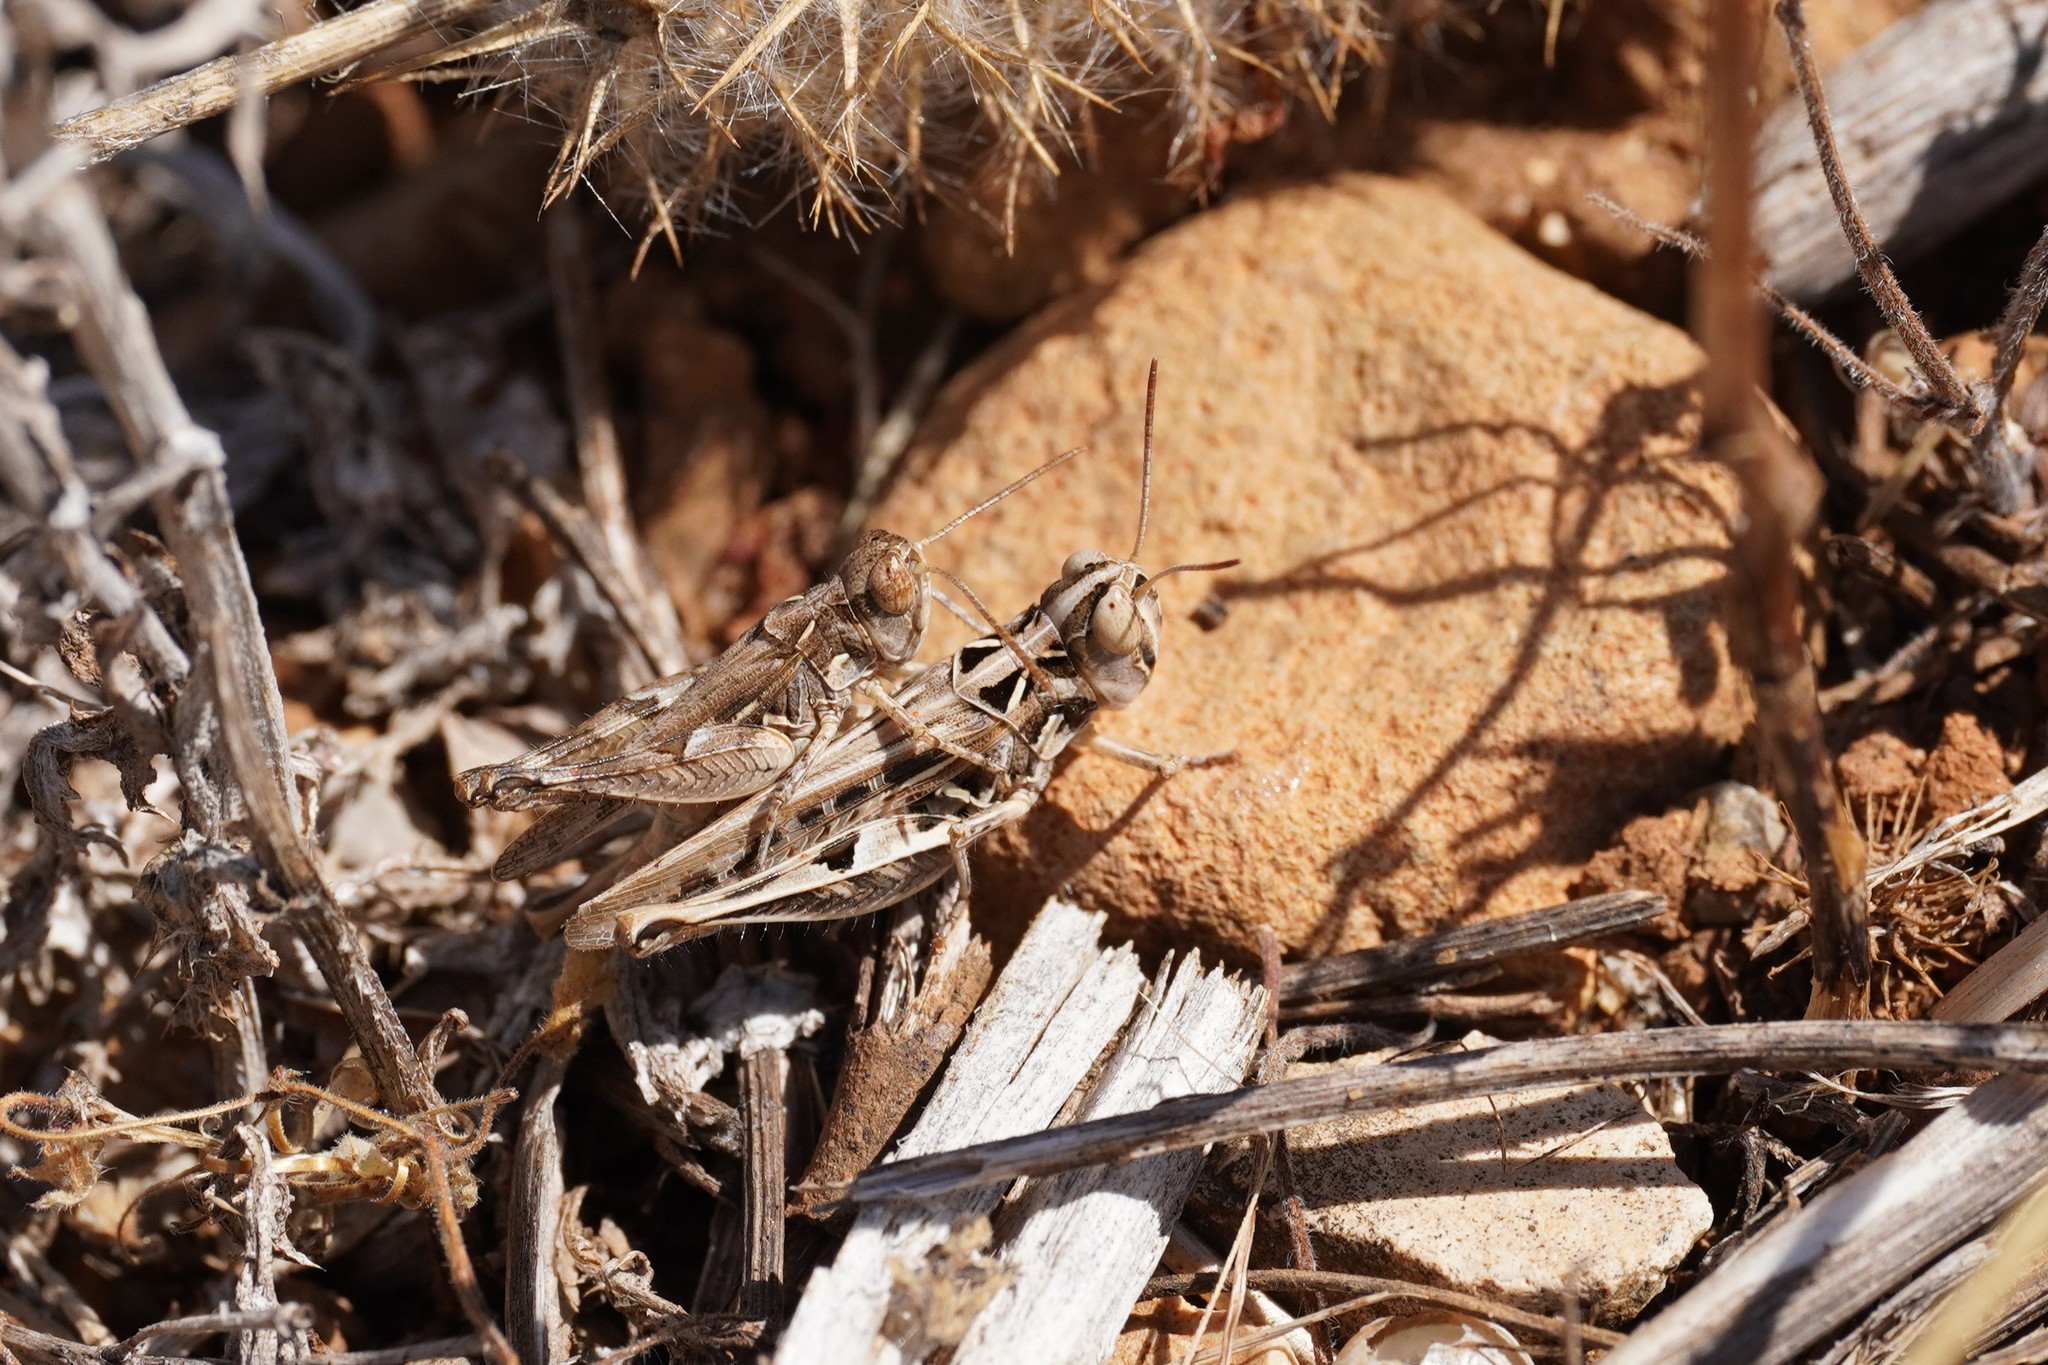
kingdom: Animalia
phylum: Arthropoda
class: Insecta
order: Orthoptera
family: Acrididae
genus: Dociostaurus
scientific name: Dociostaurus jagoi
